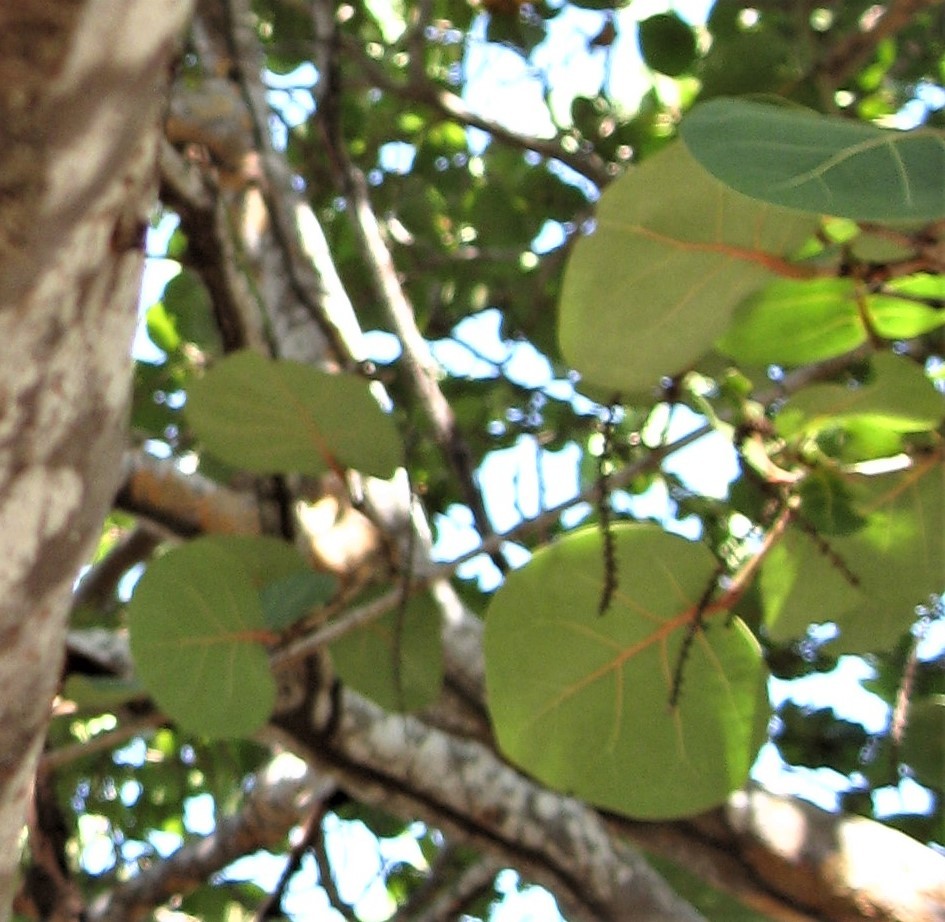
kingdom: Plantae
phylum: Tracheophyta
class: Magnoliopsida
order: Caryophyllales
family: Polygonaceae
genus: Coccoloba
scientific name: Coccoloba uvifera
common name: Seagrape
